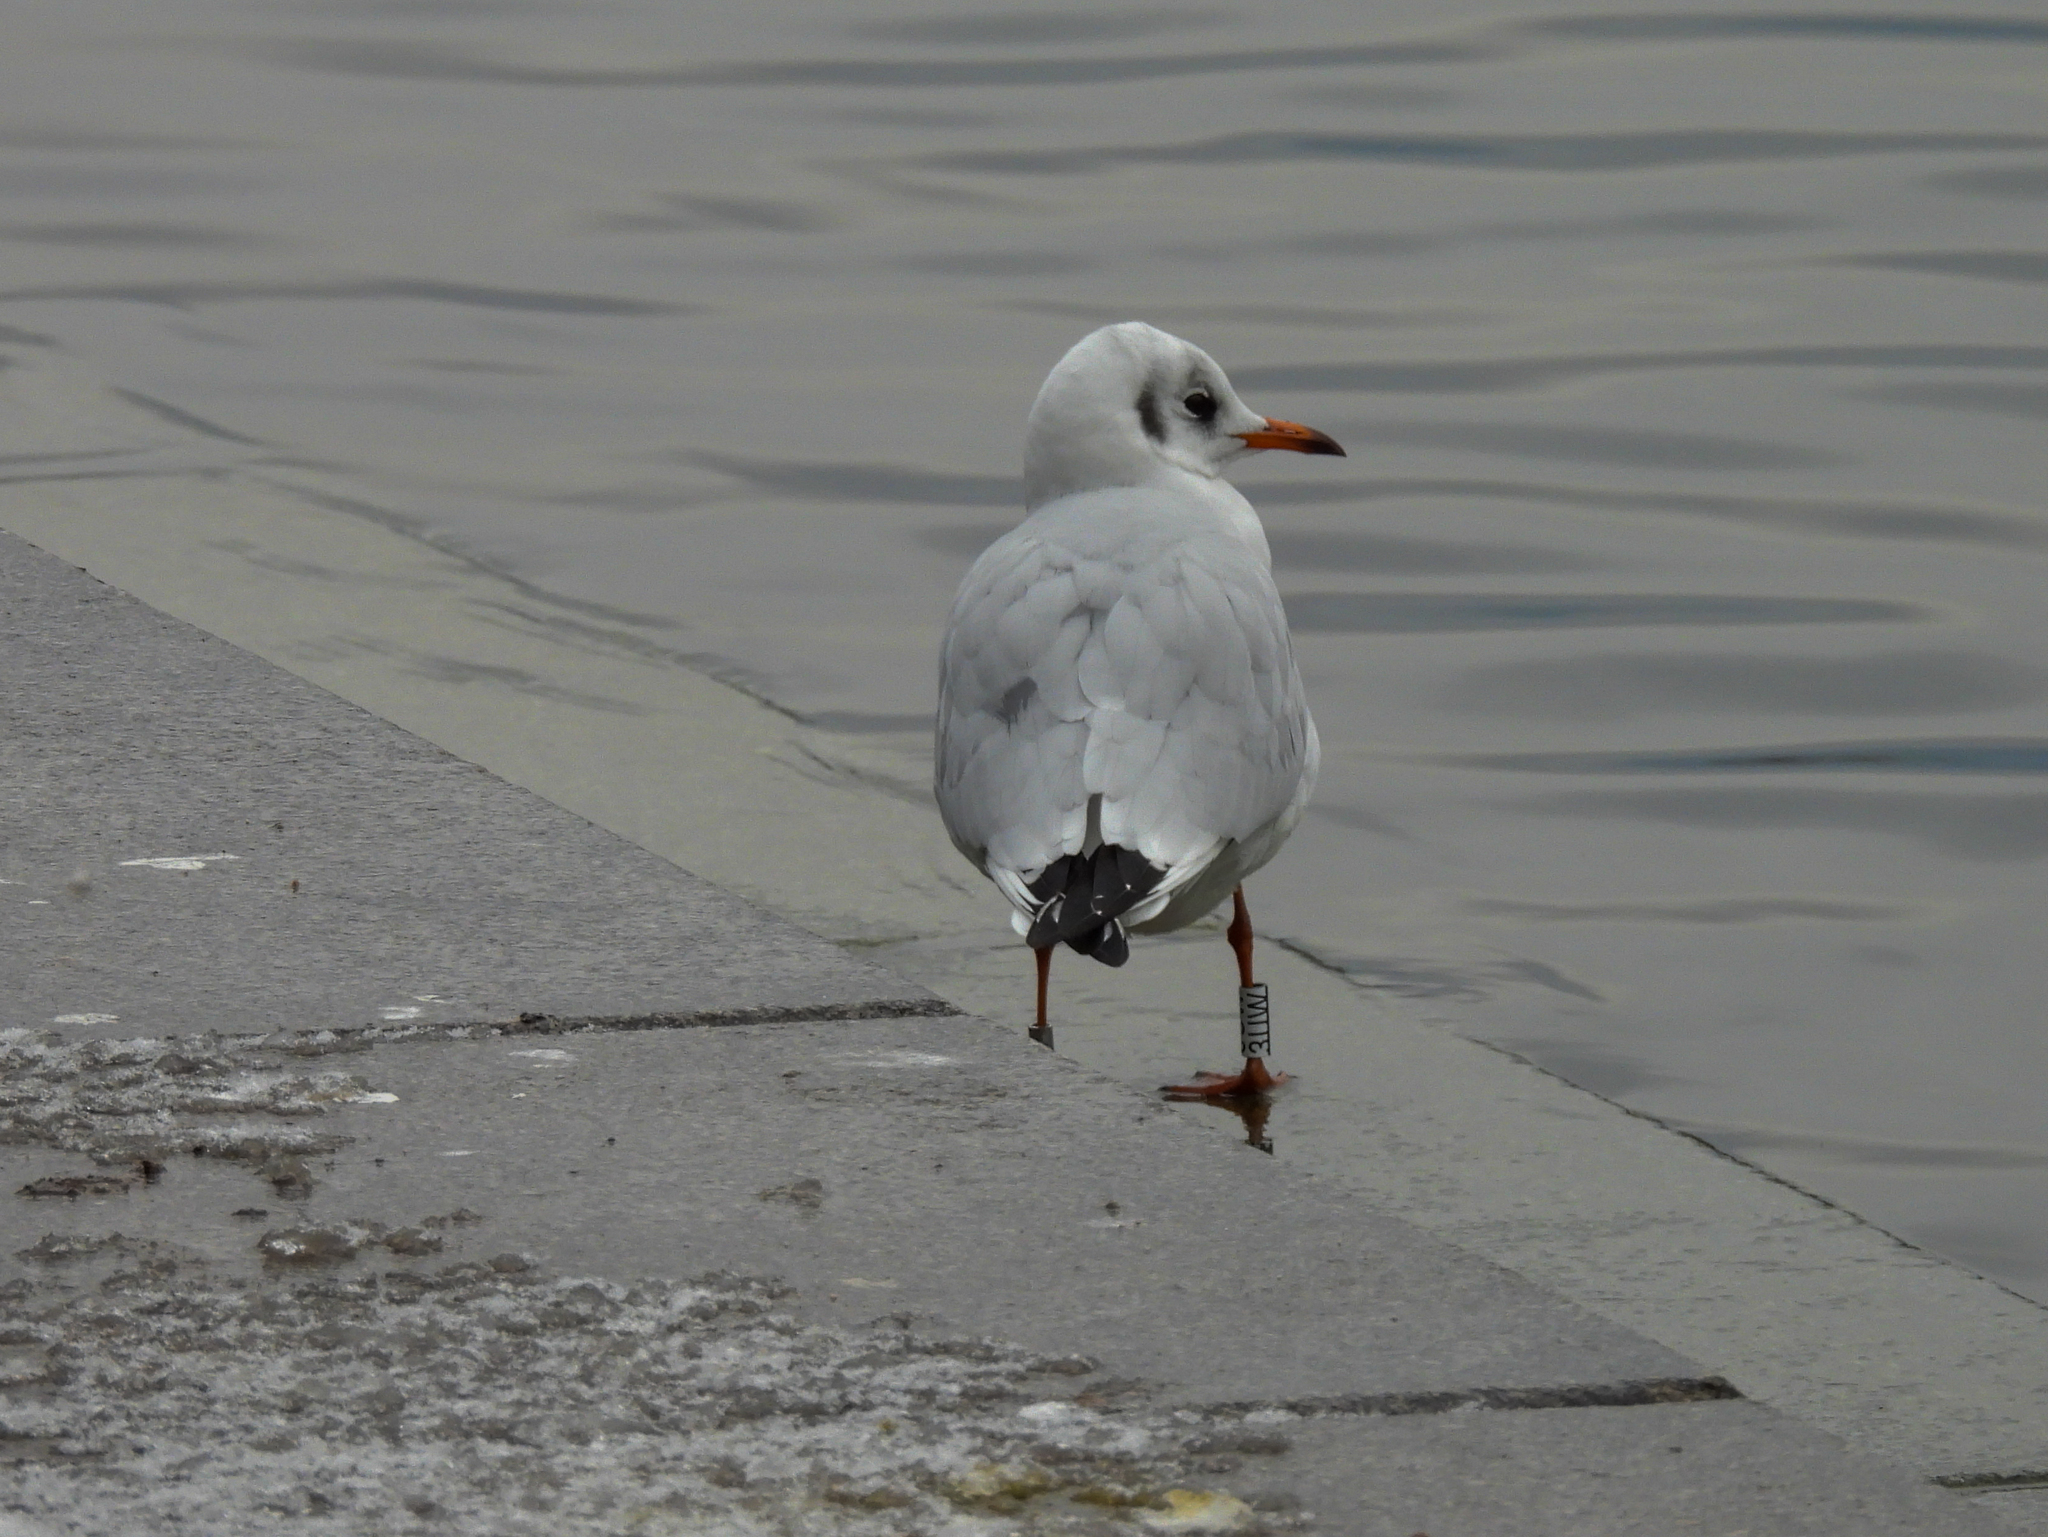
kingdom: Animalia
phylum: Chordata
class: Aves
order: Charadriiformes
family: Laridae
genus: Chroicocephalus
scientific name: Chroicocephalus ridibundus
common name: Black-headed gull
